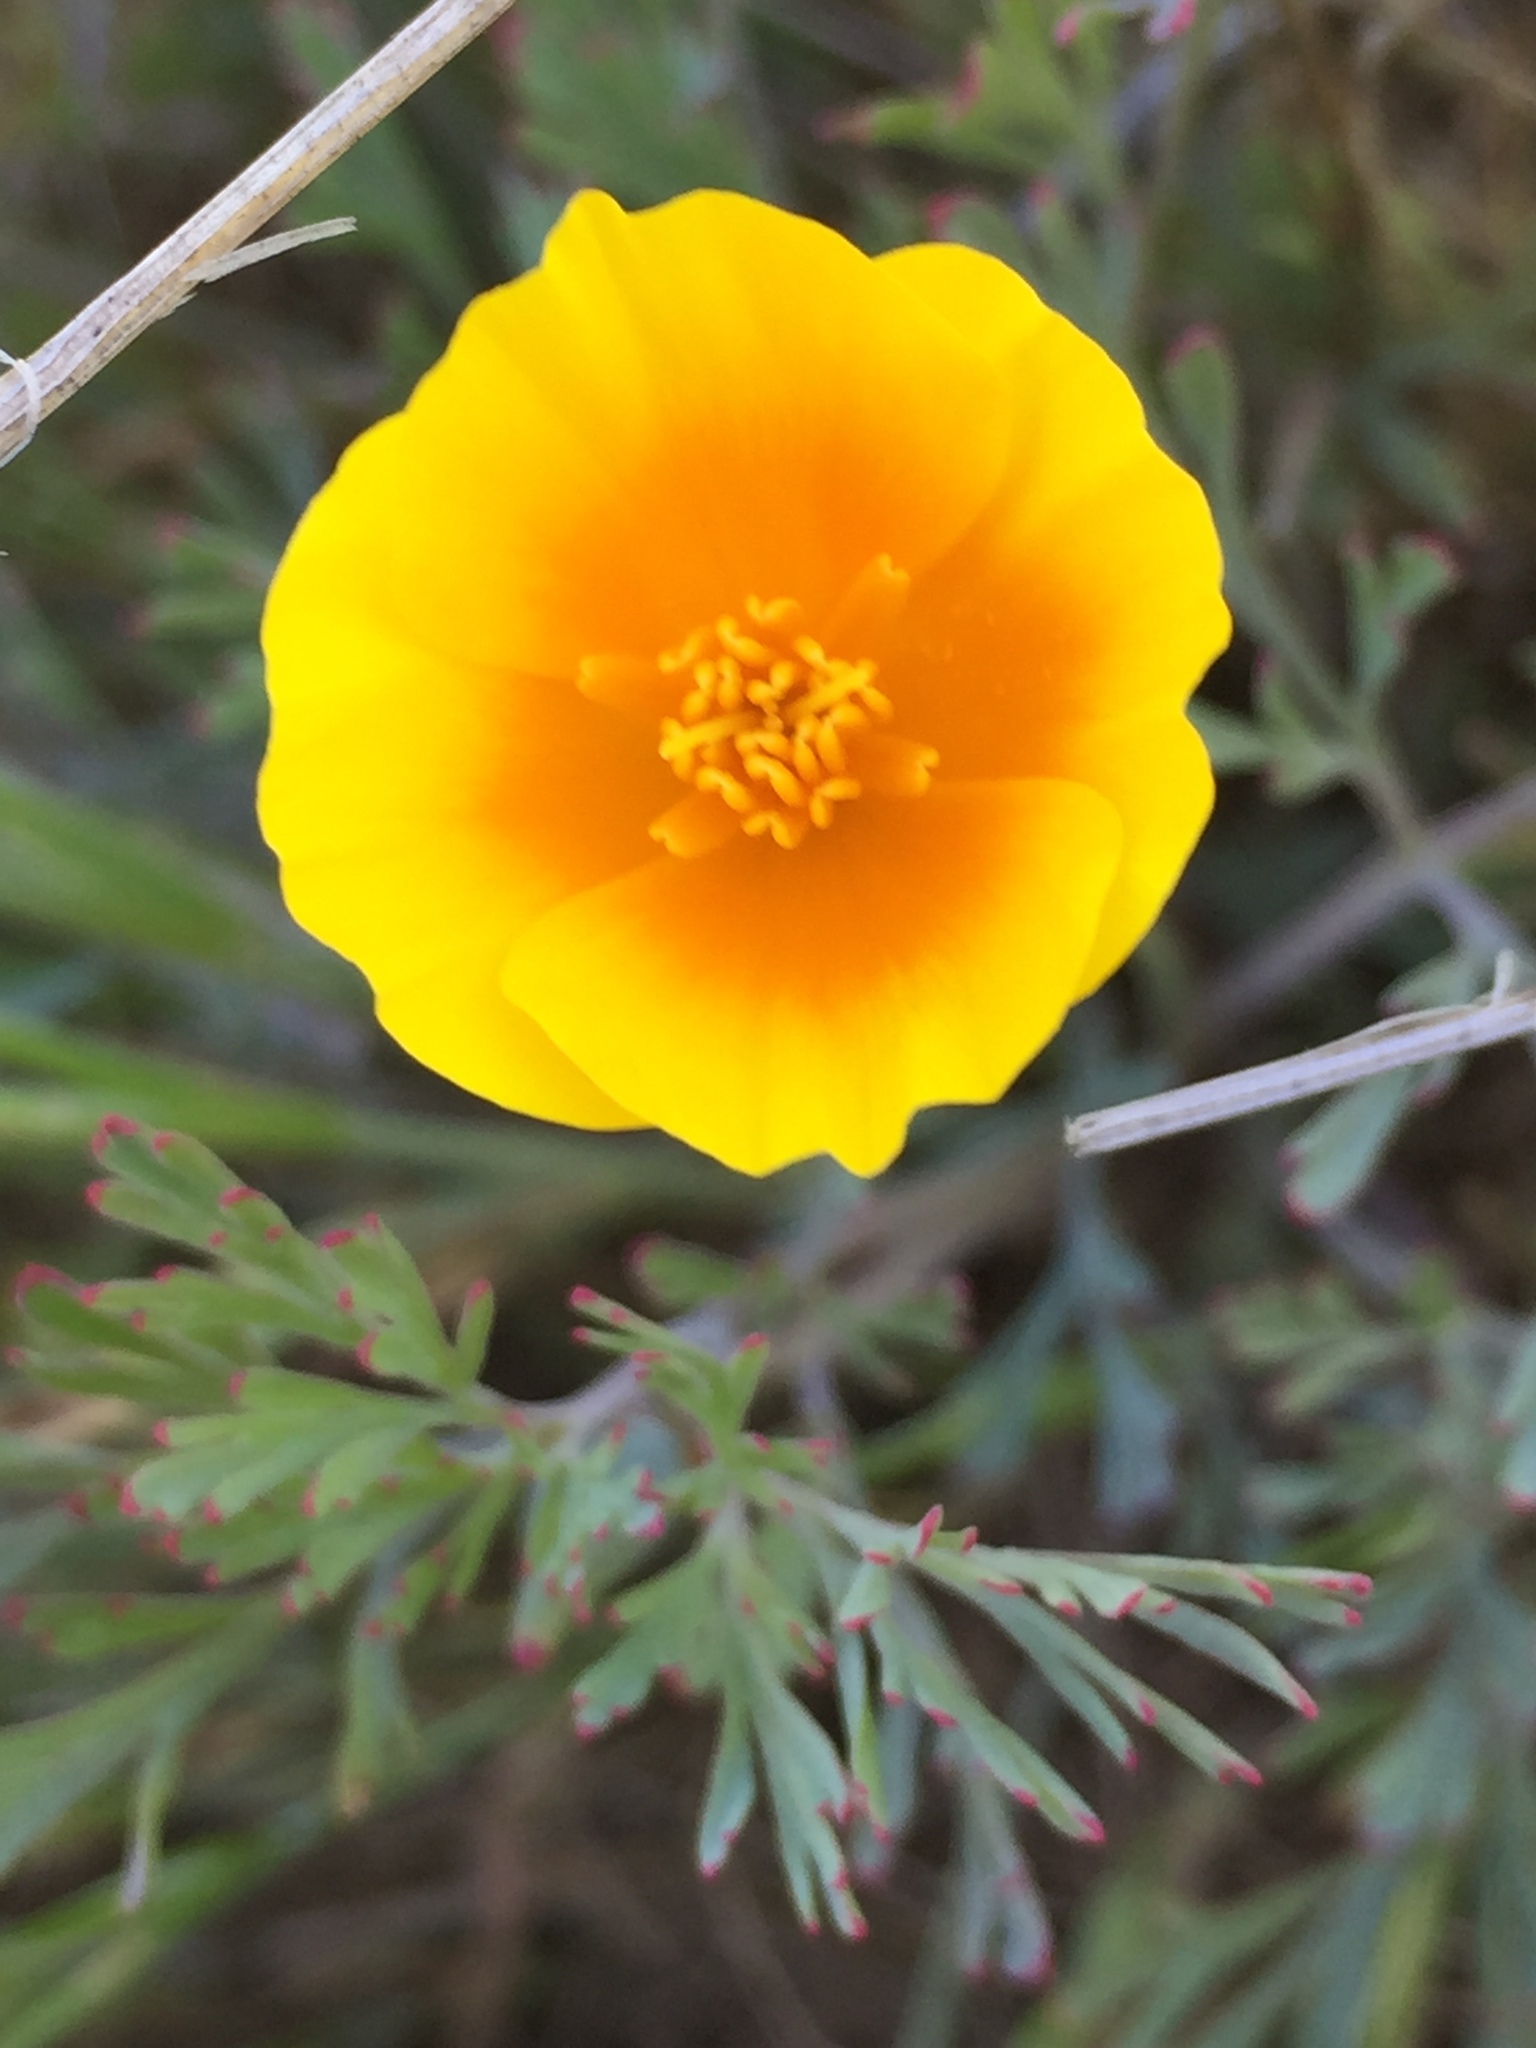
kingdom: Plantae
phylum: Tracheophyta
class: Magnoliopsida
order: Ranunculales
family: Papaveraceae
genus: Eschscholzia
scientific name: Eschscholzia californica
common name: California poppy
